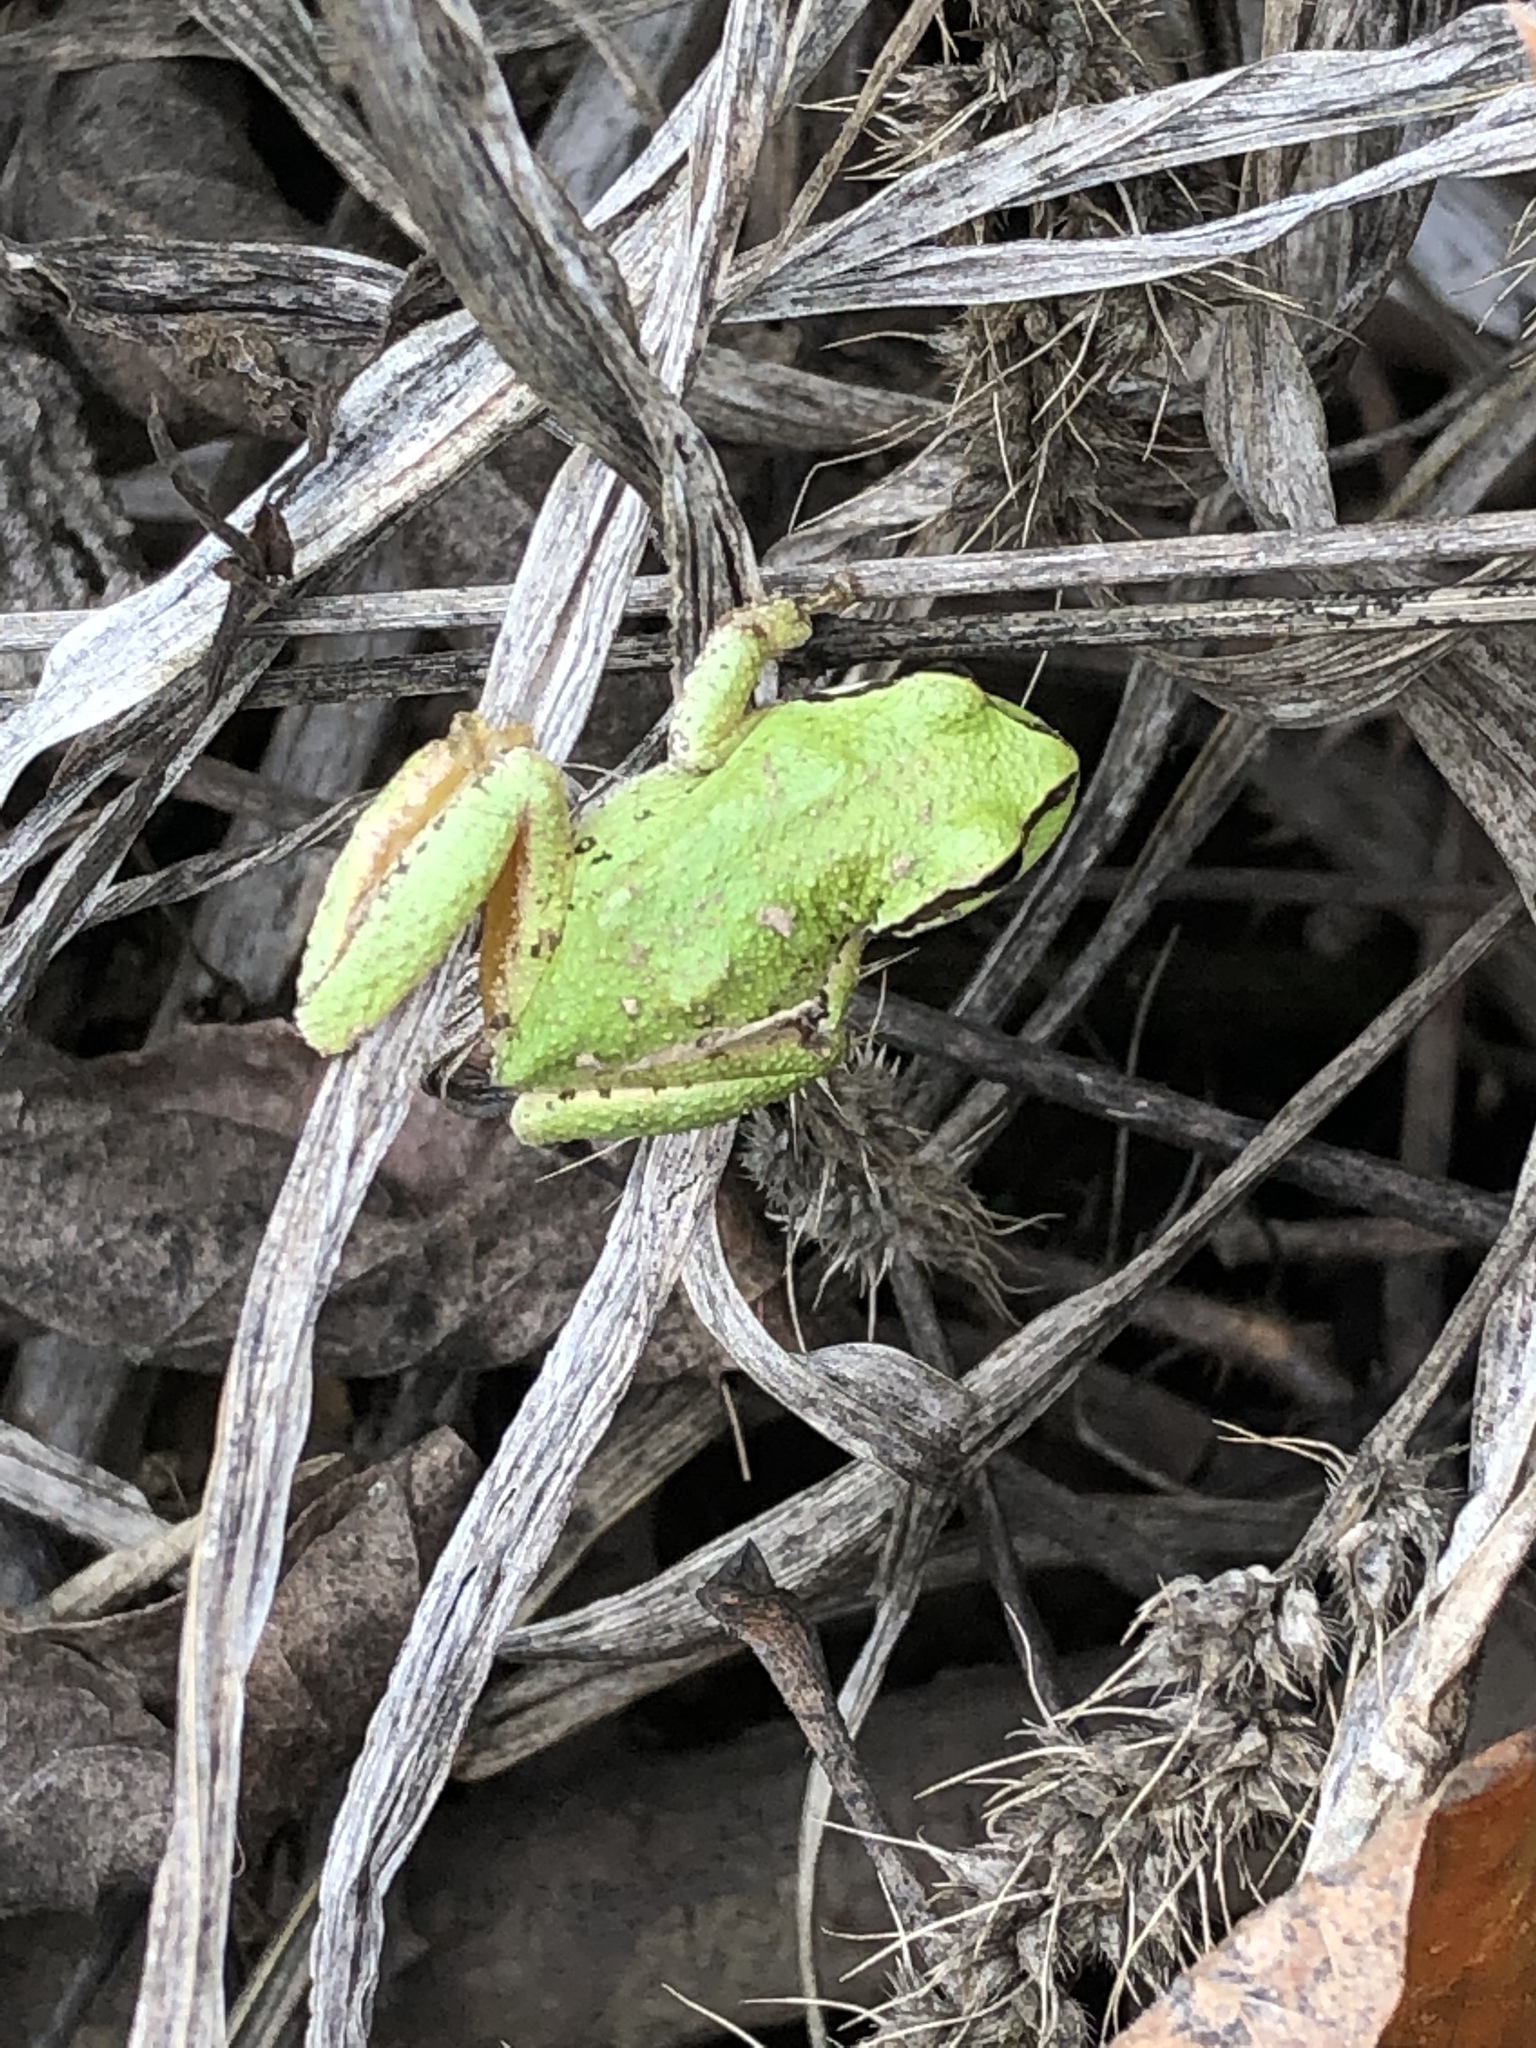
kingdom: Animalia
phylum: Chordata
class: Amphibia
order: Anura
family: Hylidae
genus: Pseudacris
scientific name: Pseudacris regilla
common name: Pacific chorus frog
